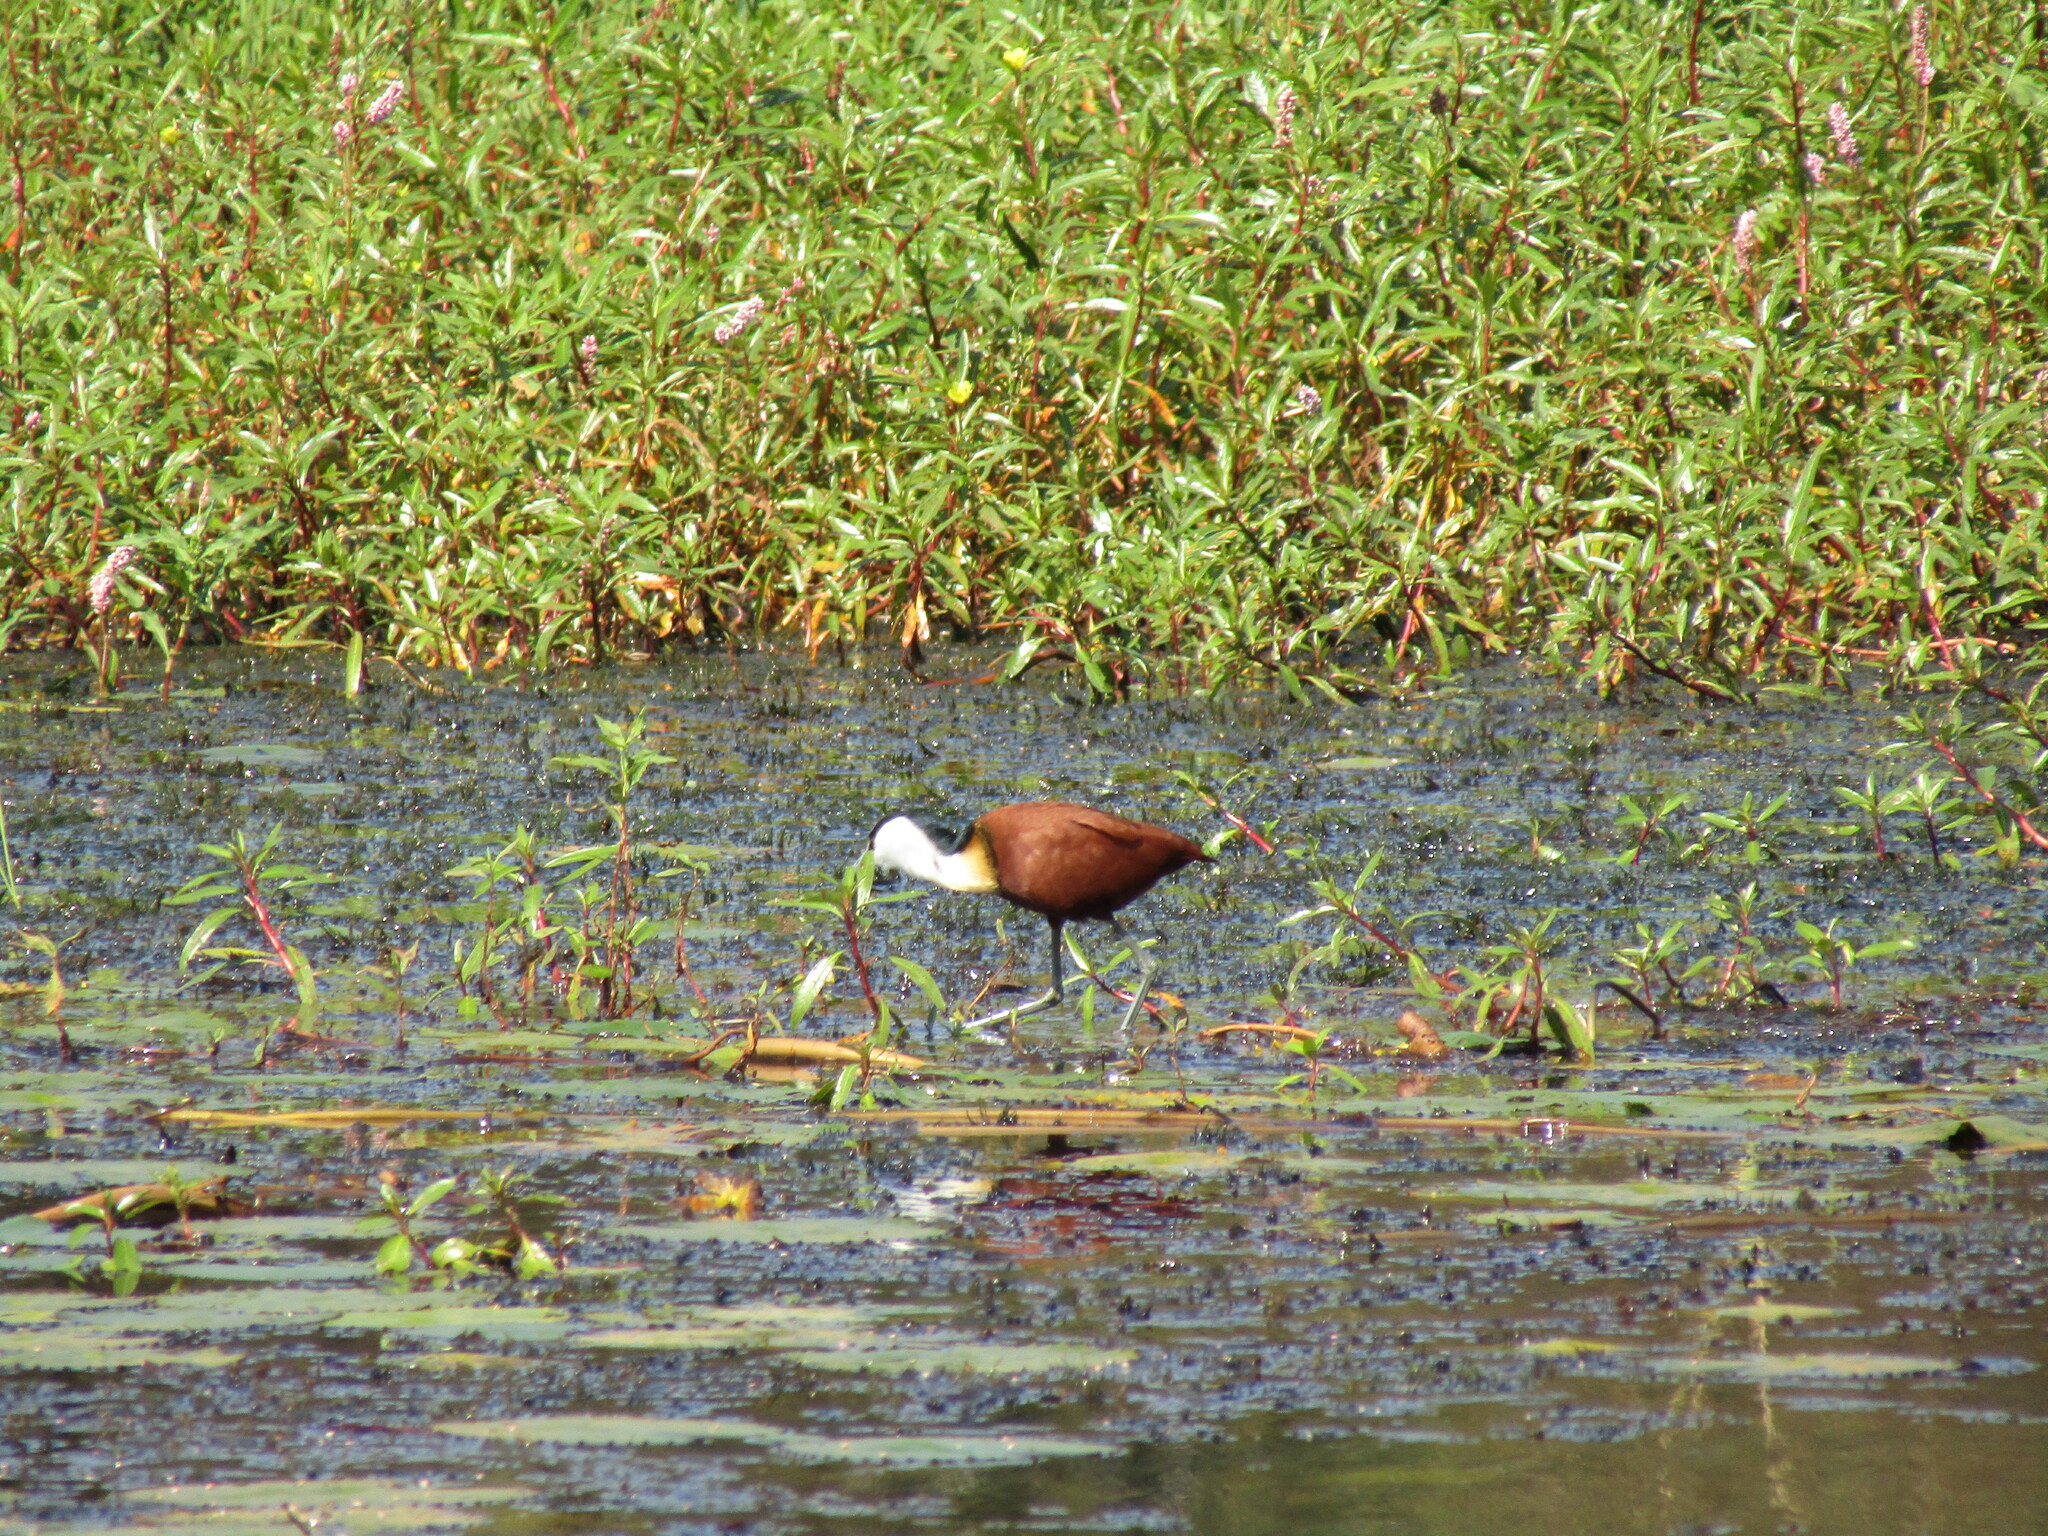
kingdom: Animalia
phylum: Chordata
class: Aves
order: Charadriiformes
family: Jacanidae
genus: Actophilornis
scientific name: Actophilornis africanus
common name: African jacana
